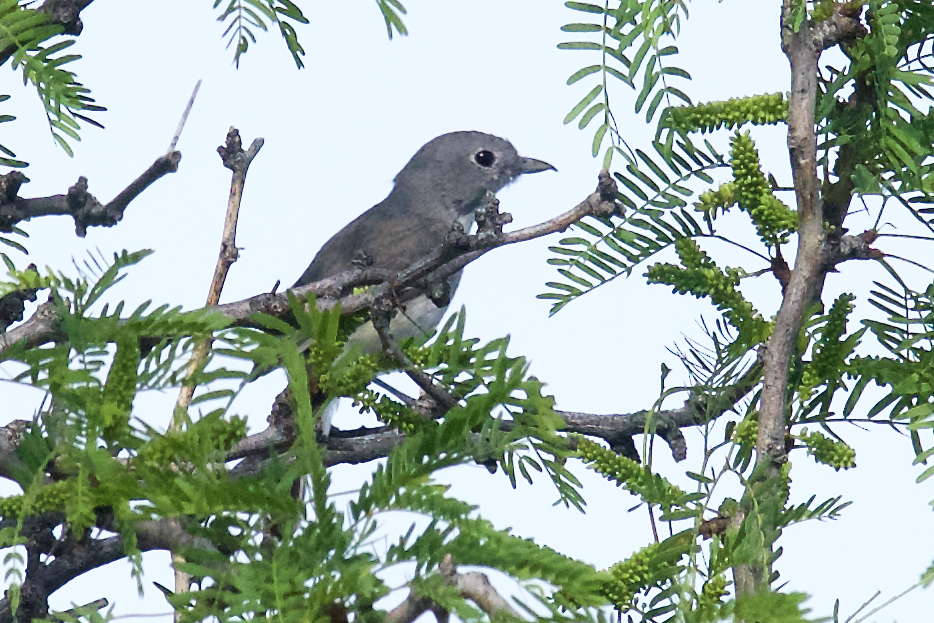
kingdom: Animalia
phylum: Chordata
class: Aves
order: Passeriformes
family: Vireonidae
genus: Vireo
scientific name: Vireo vicinior
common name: Gray vireo
